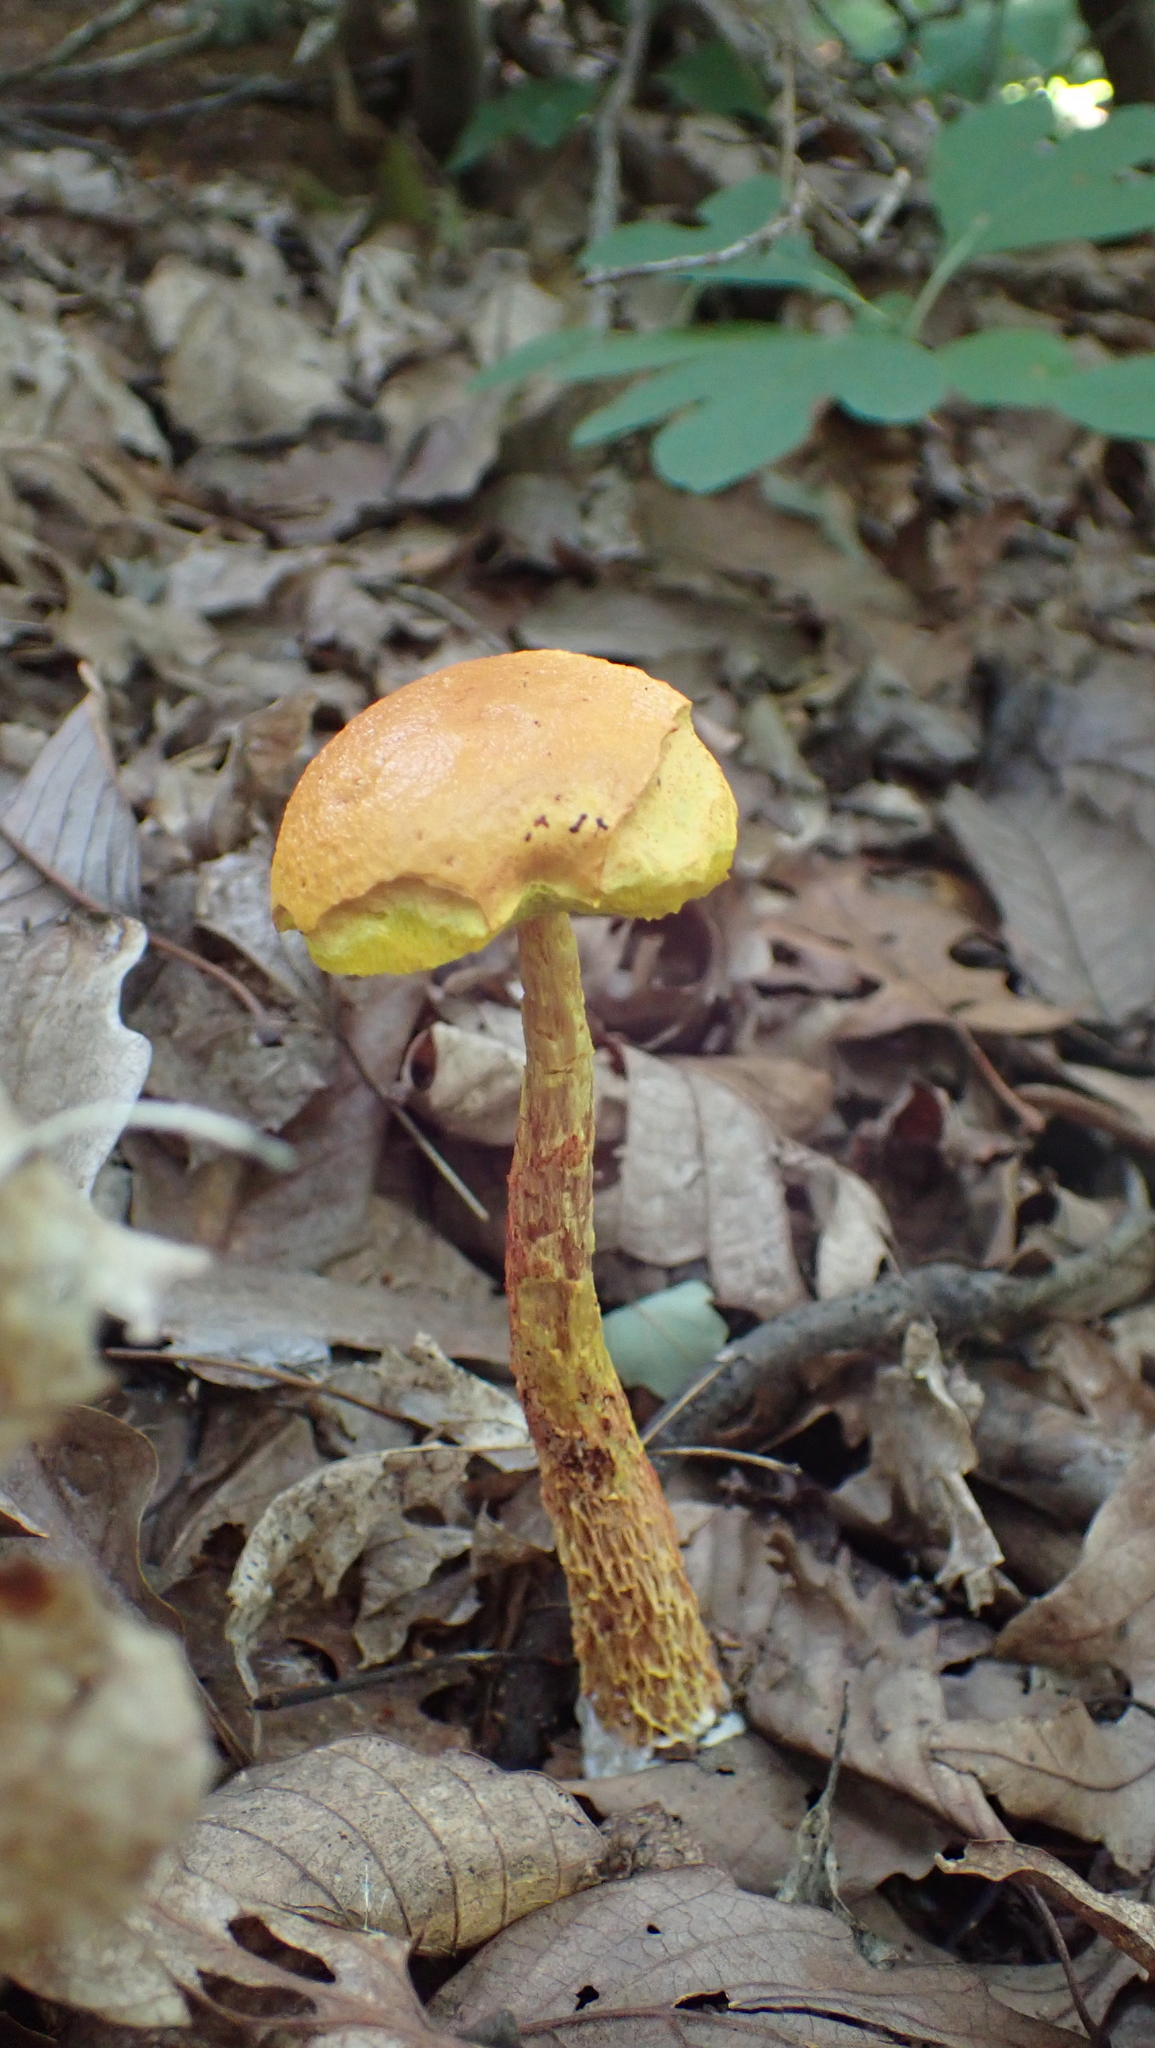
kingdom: Fungi
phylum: Basidiomycota
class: Agaricomycetes
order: Boletales
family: Boletaceae
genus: Aureoboletus
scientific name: Aureoboletus betula
